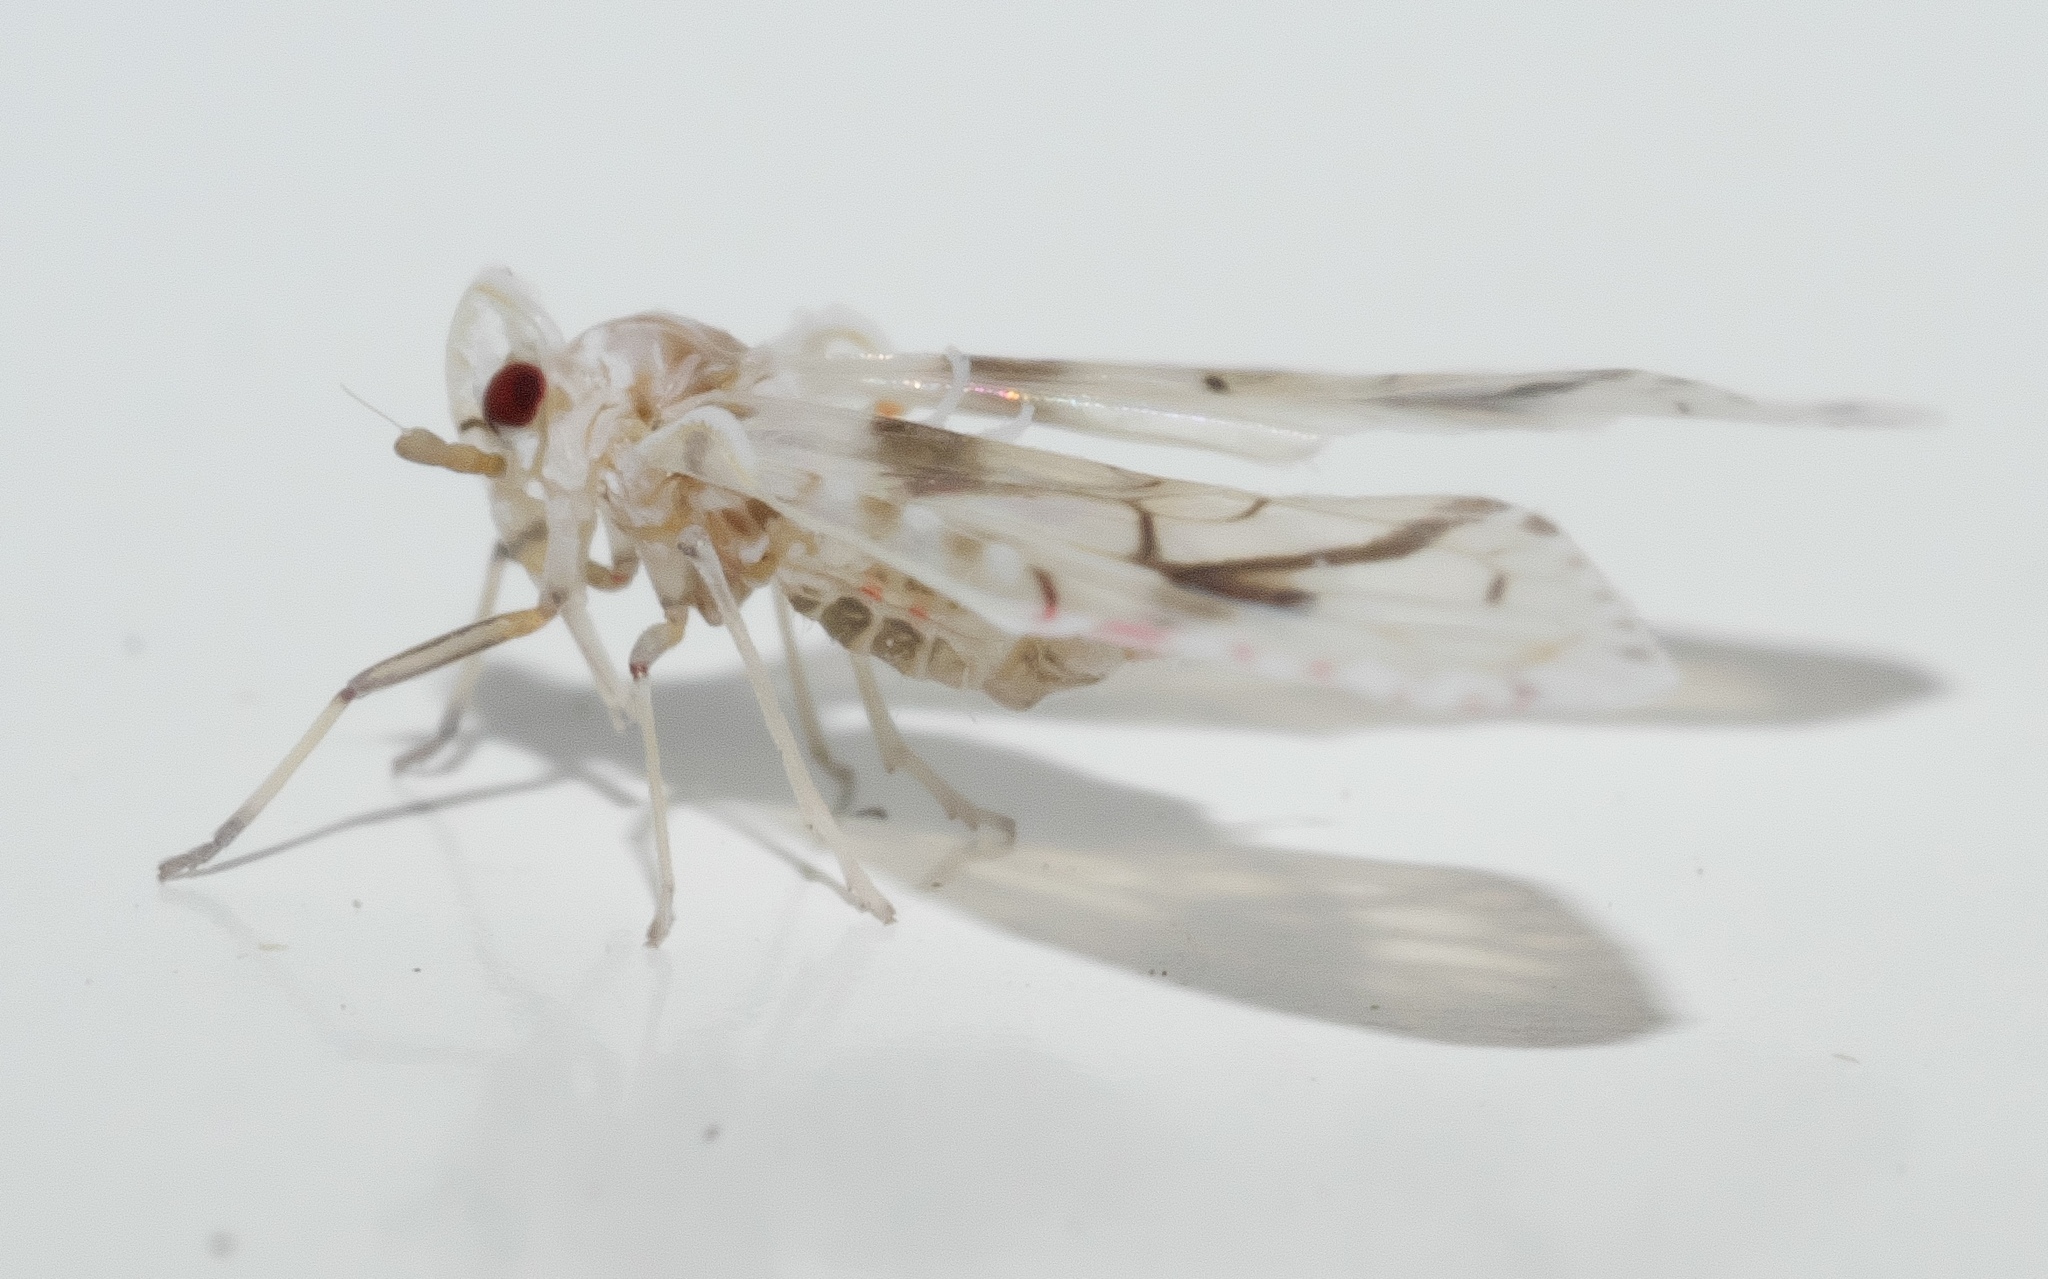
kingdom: Animalia
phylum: Arthropoda
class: Insecta
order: Hemiptera
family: Derbidae
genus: Anotia
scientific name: Anotia robertsonii
